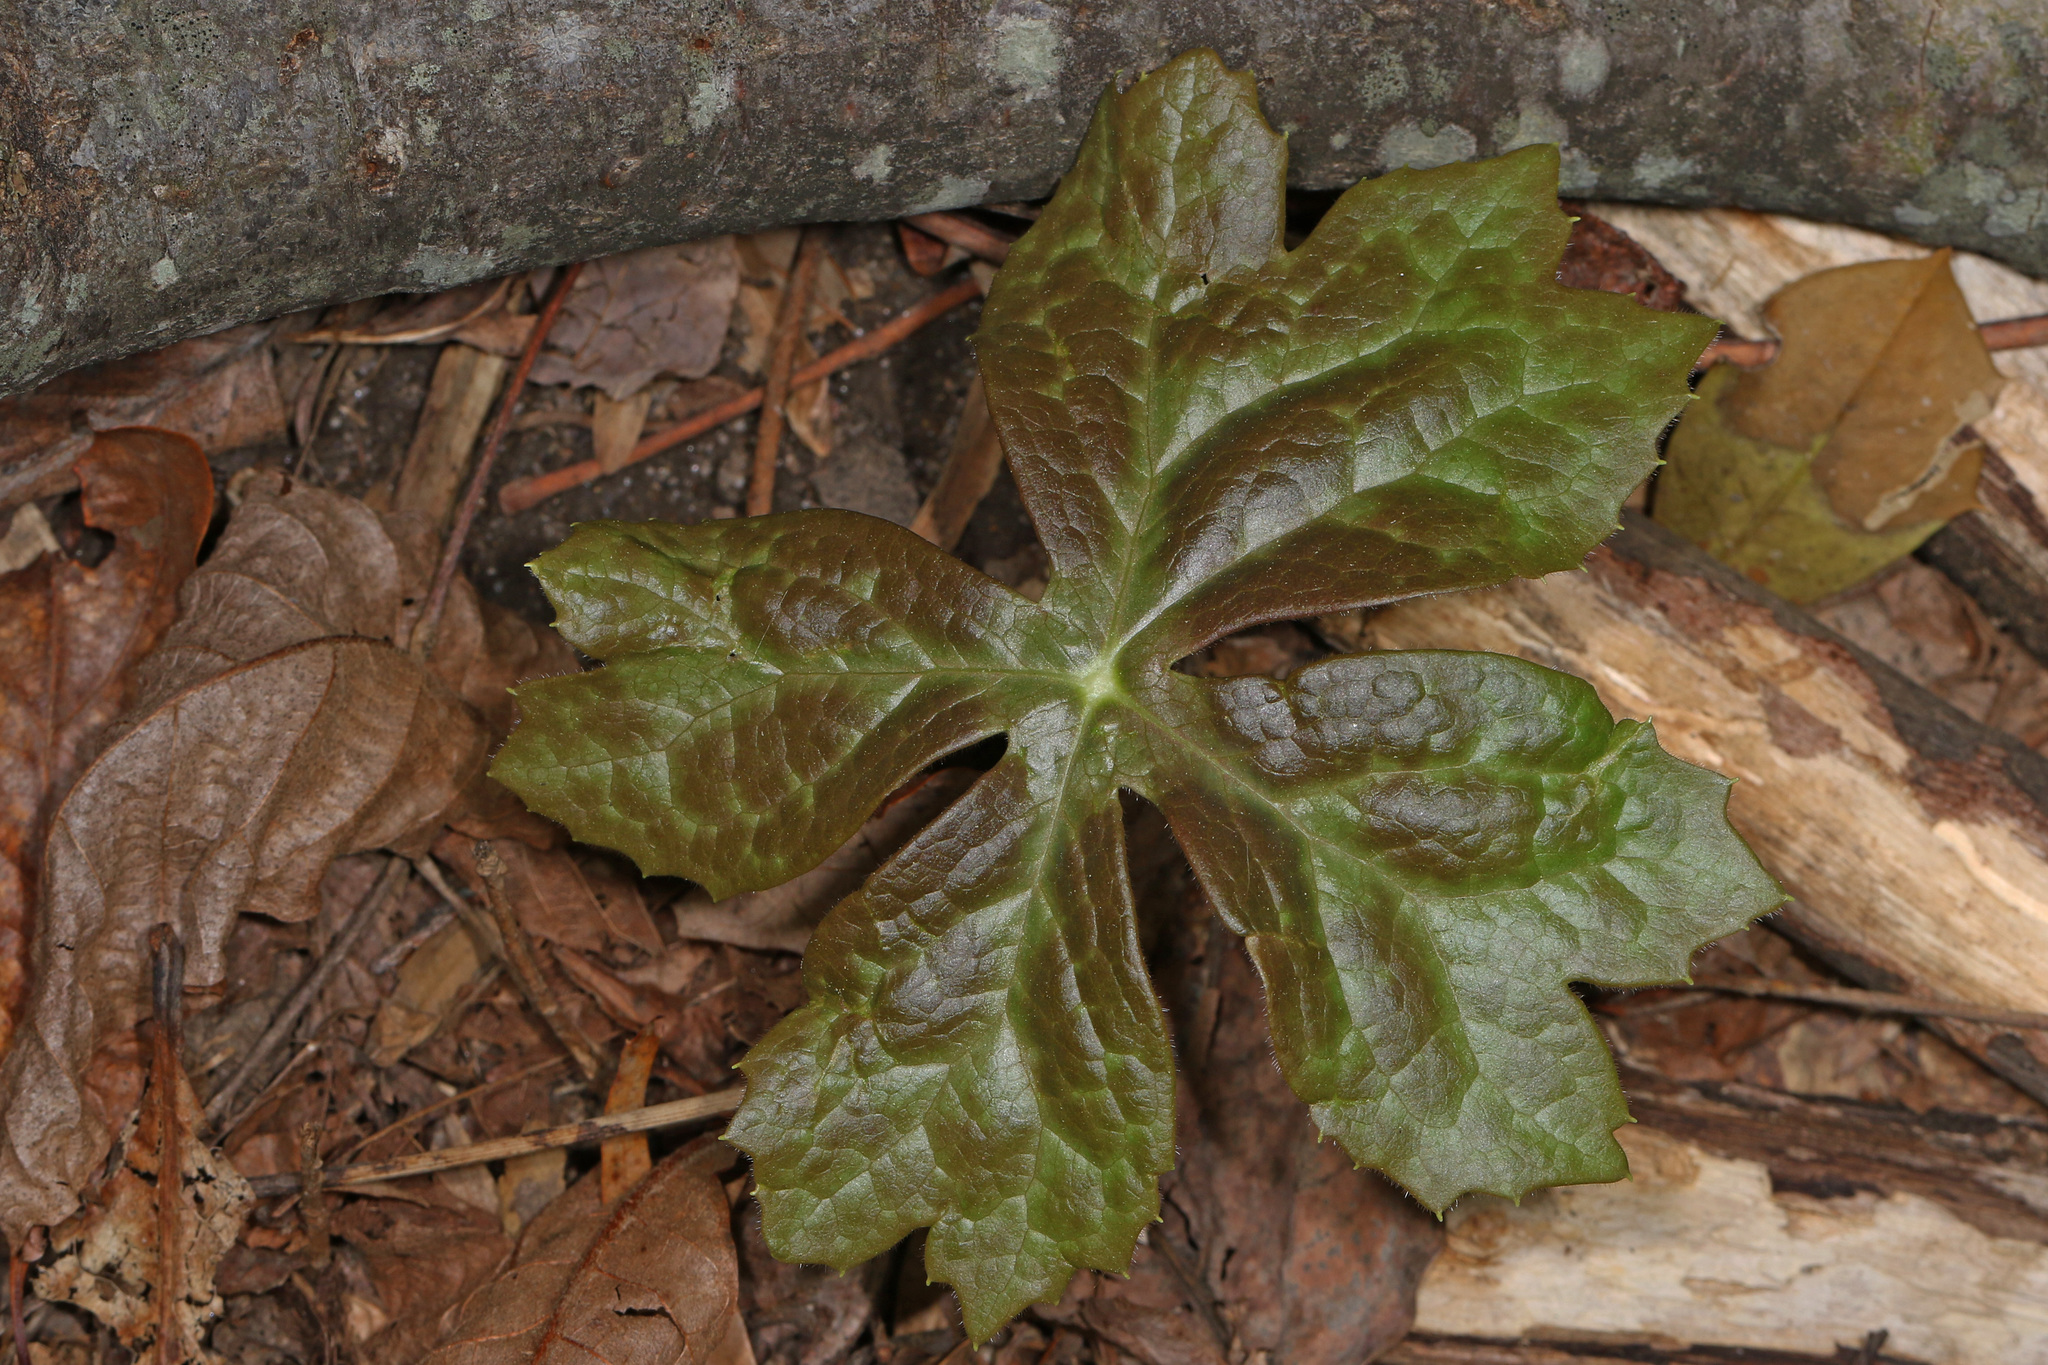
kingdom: Plantae
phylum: Tracheophyta
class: Magnoliopsida
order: Ranunculales
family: Berberidaceae
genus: Podophyllum
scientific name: Podophyllum peltatum
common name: Wild mandrake
